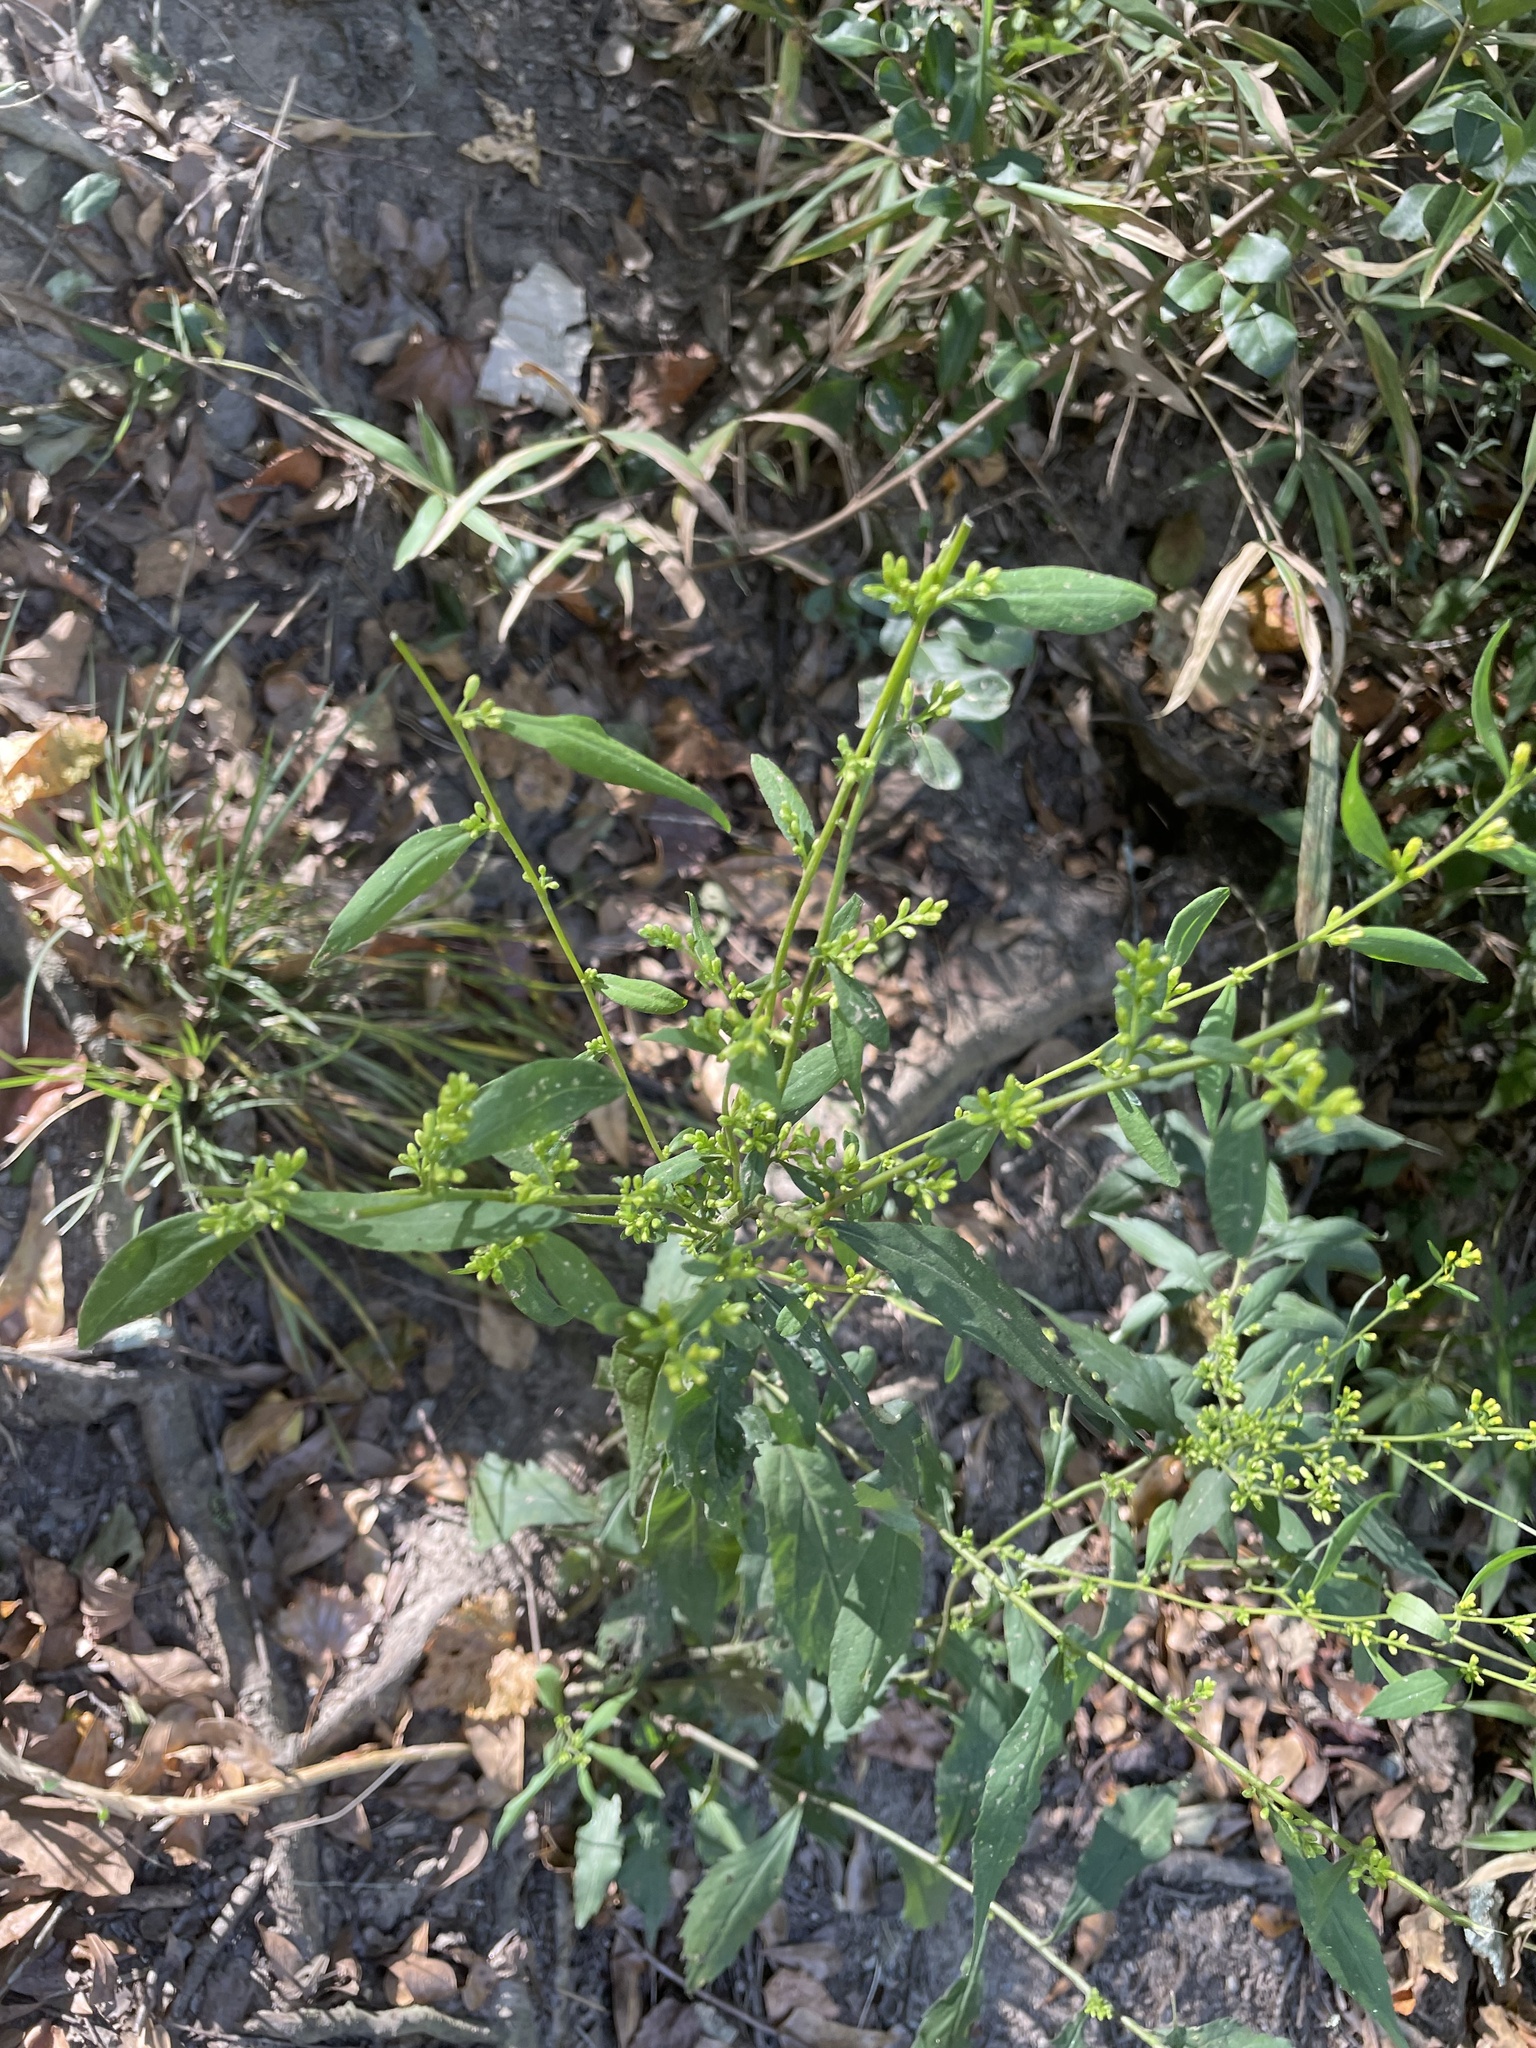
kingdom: Plantae
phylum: Tracheophyta
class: Magnoliopsida
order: Asterales
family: Asteraceae
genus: Solidago
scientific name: Solidago curtisii
